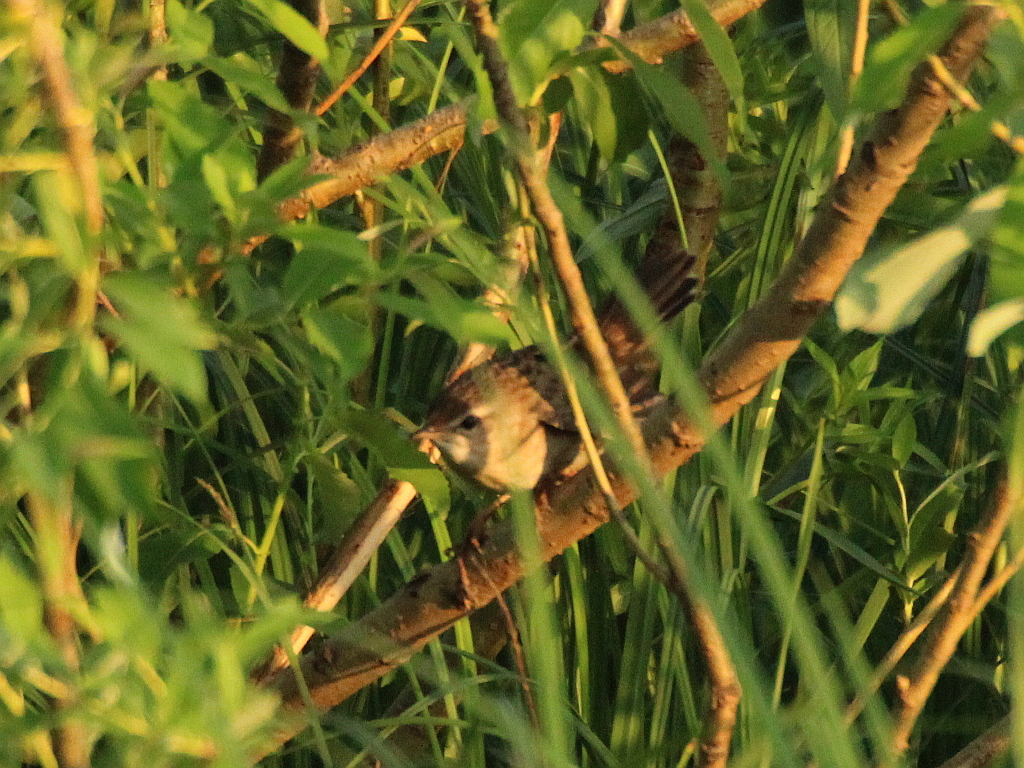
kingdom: Animalia
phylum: Chordata
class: Aves
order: Passeriformes
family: Locustellidae
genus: Locustella
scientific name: Locustella certhiola
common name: Pallas's grasshopper warbler
